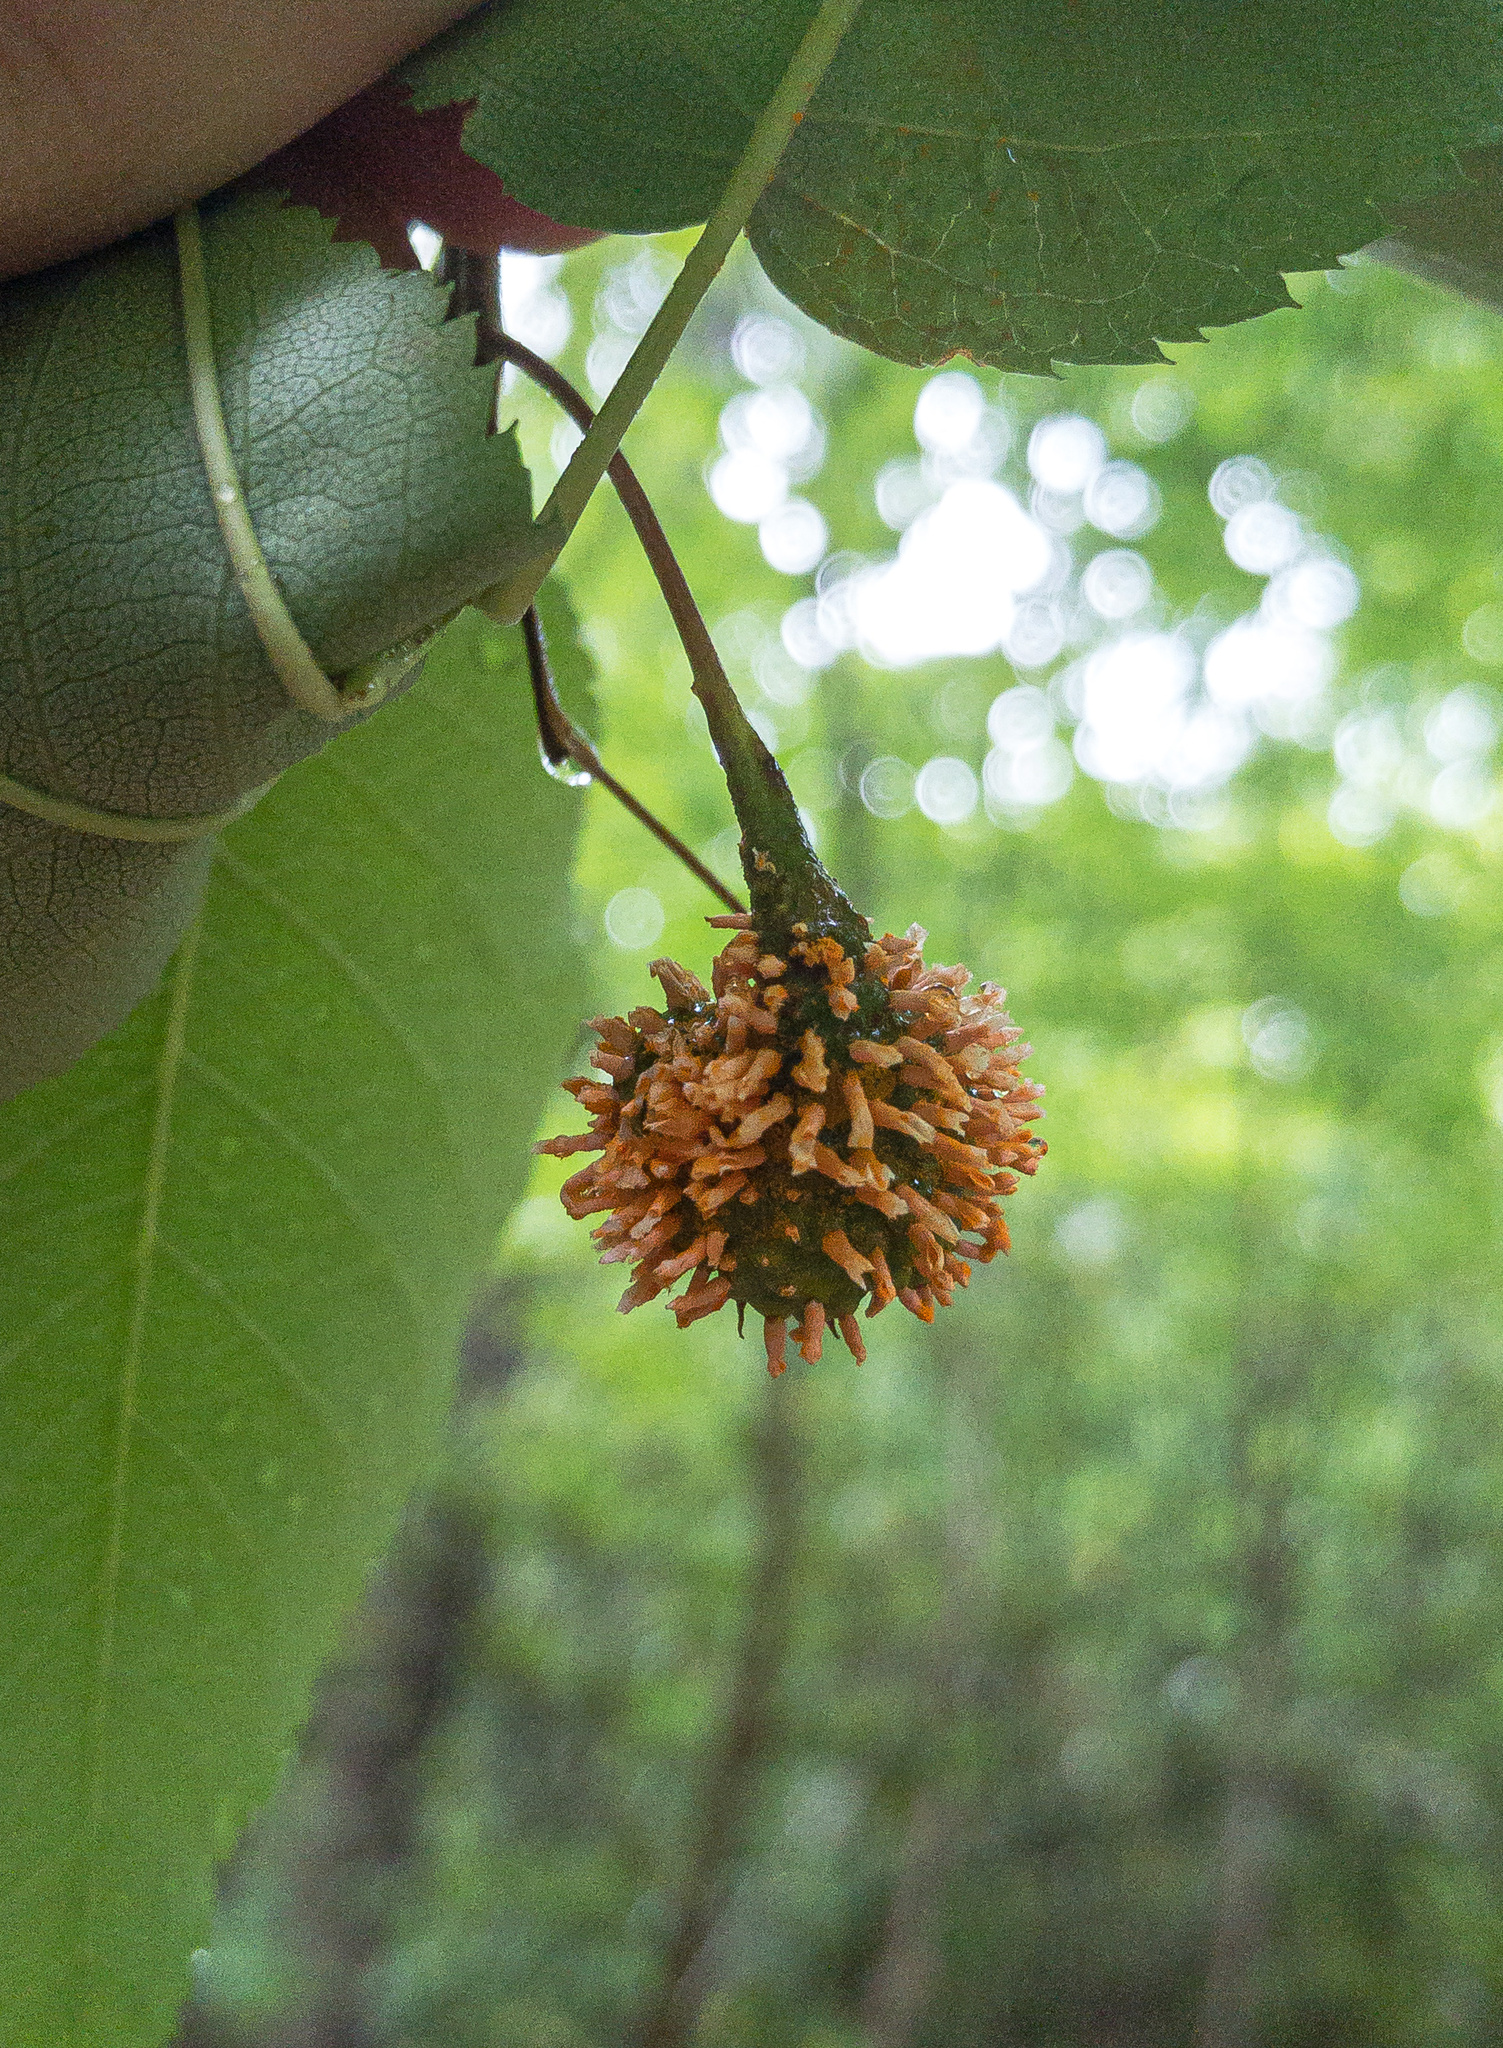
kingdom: Fungi
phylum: Basidiomycota
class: Pucciniomycetes
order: Pucciniales
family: Gymnosporangiaceae
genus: Gymnosporangium
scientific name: Gymnosporangium clavipes
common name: Quince rust
